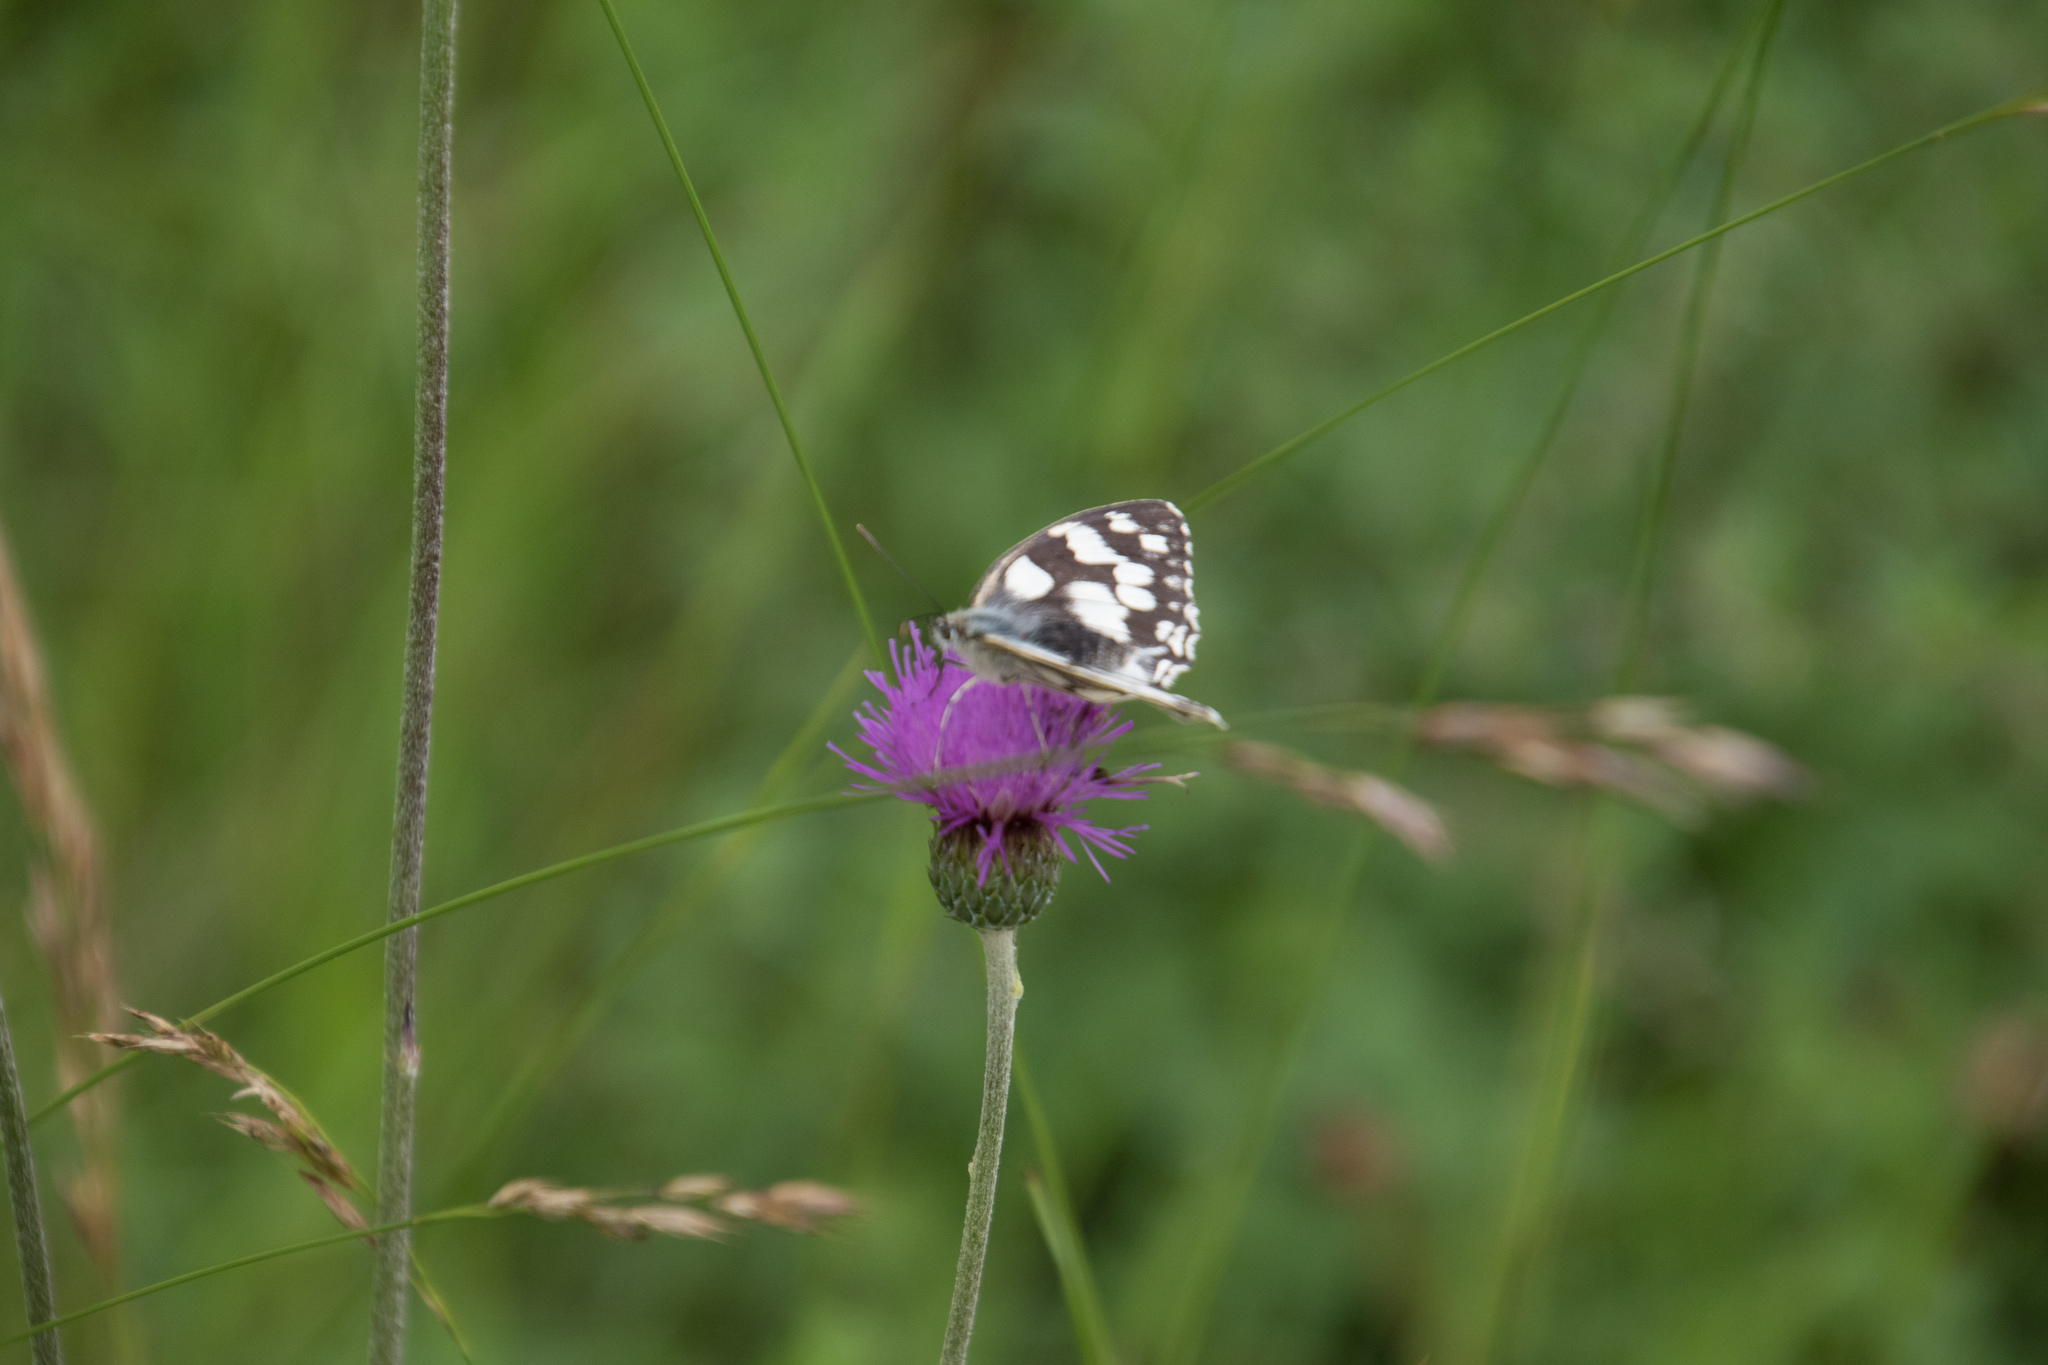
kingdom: Animalia
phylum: Arthropoda
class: Insecta
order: Lepidoptera
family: Nymphalidae
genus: Melanargia
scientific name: Melanargia galathea
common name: Marbled white
